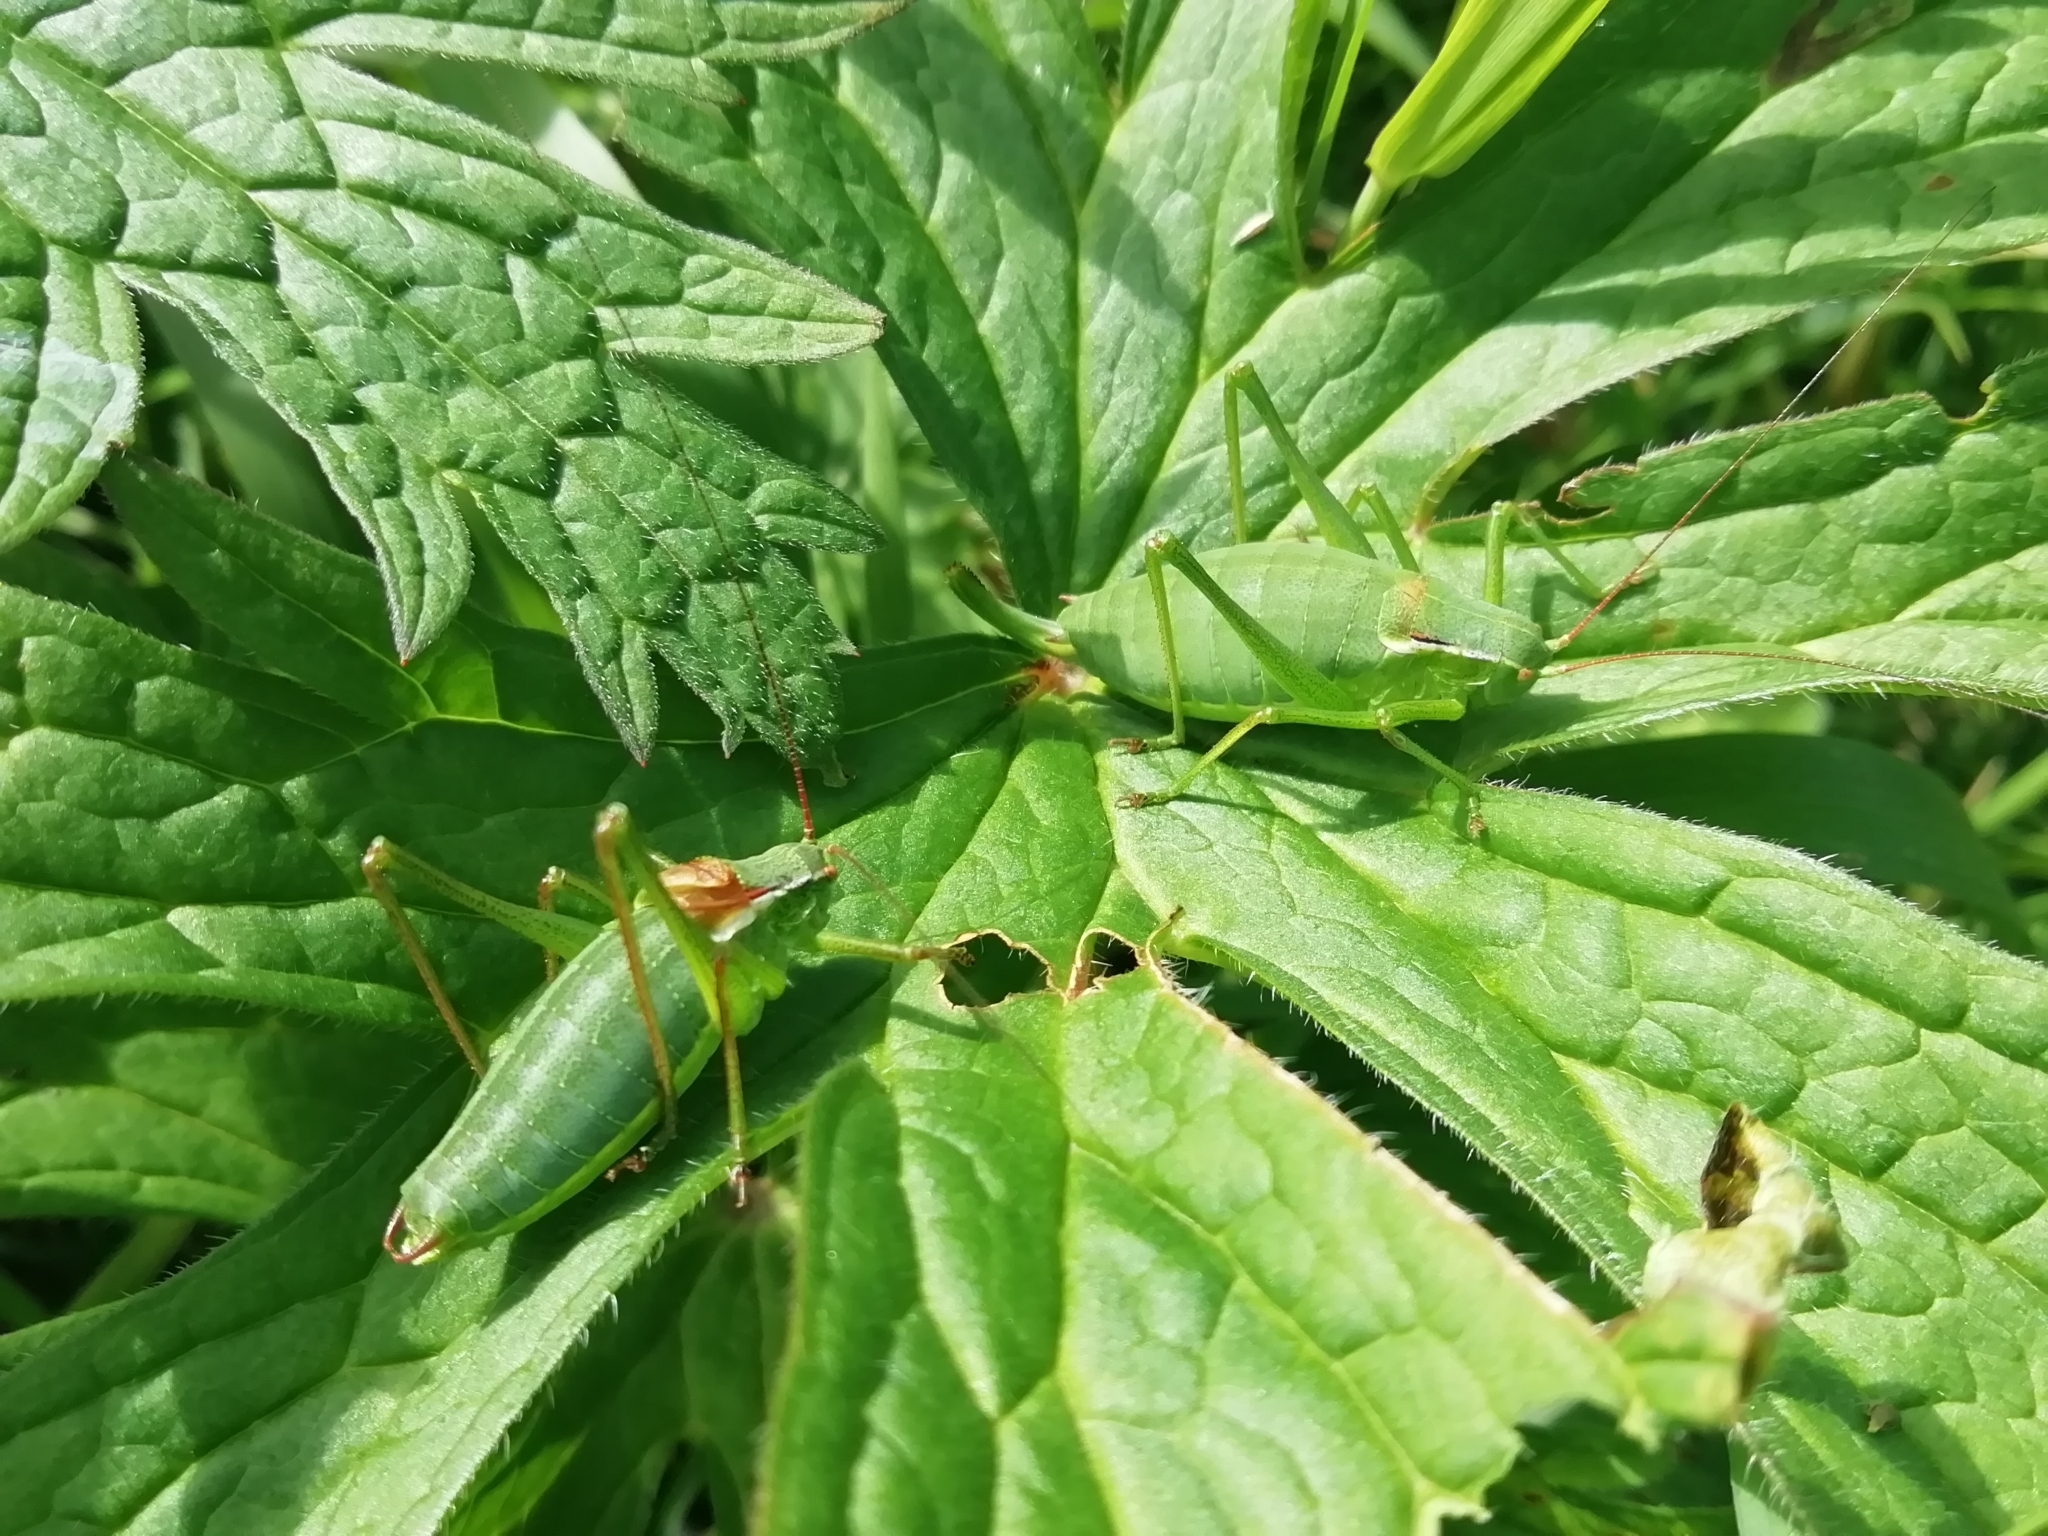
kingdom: Animalia
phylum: Arthropoda
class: Insecta
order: Orthoptera
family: Tettigoniidae
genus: Isophya
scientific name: Isophya altaica
